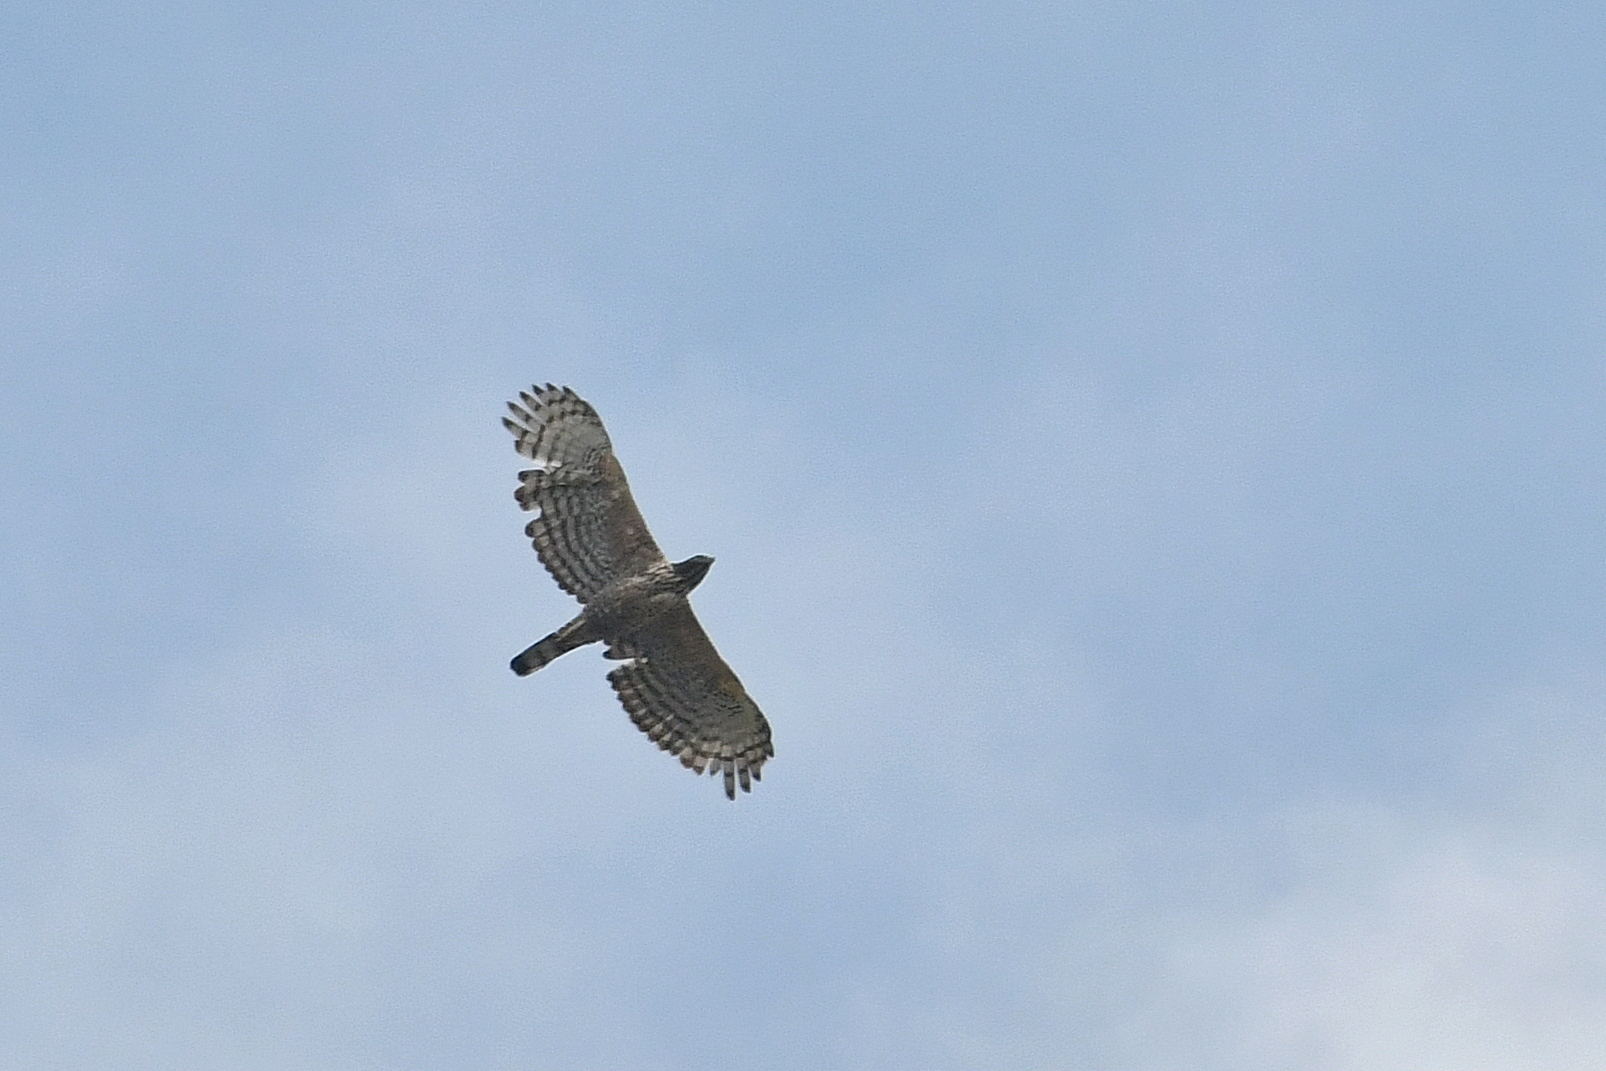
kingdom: Animalia
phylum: Chordata
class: Aves
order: Accipitriformes
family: Accipitridae
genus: Nisaetus
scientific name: Nisaetus nipalensis
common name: Mountain hawk-eagle
